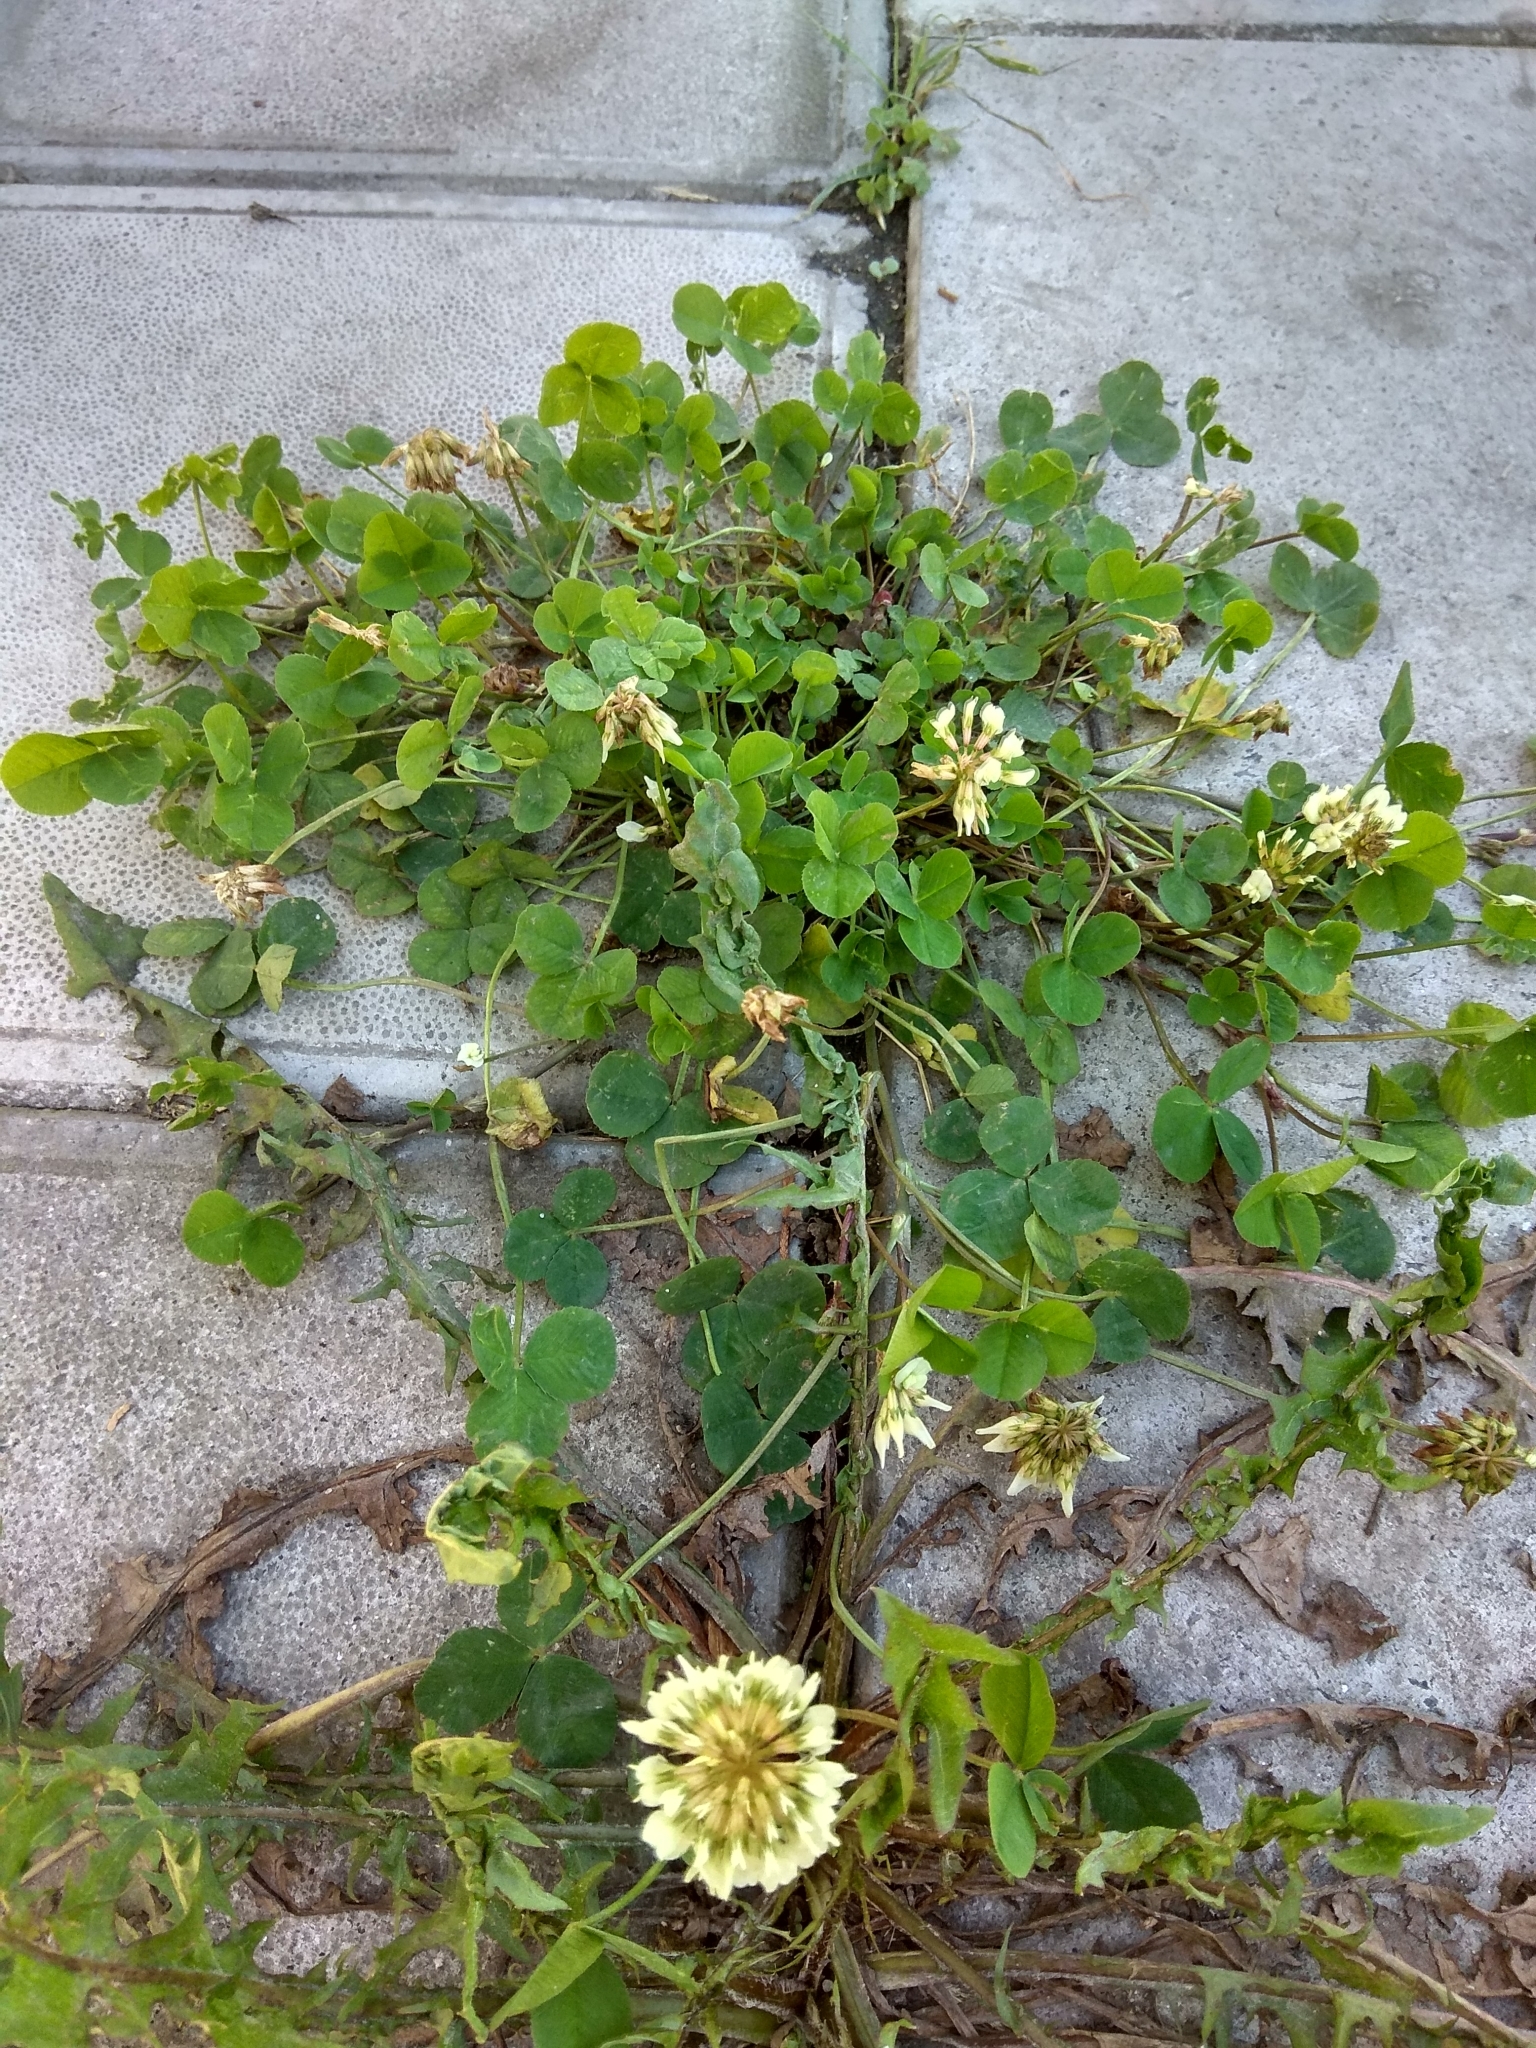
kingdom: Plantae
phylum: Tracheophyta
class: Magnoliopsida
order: Fabales
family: Fabaceae
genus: Trifolium
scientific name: Trifolium repens
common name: White clover
